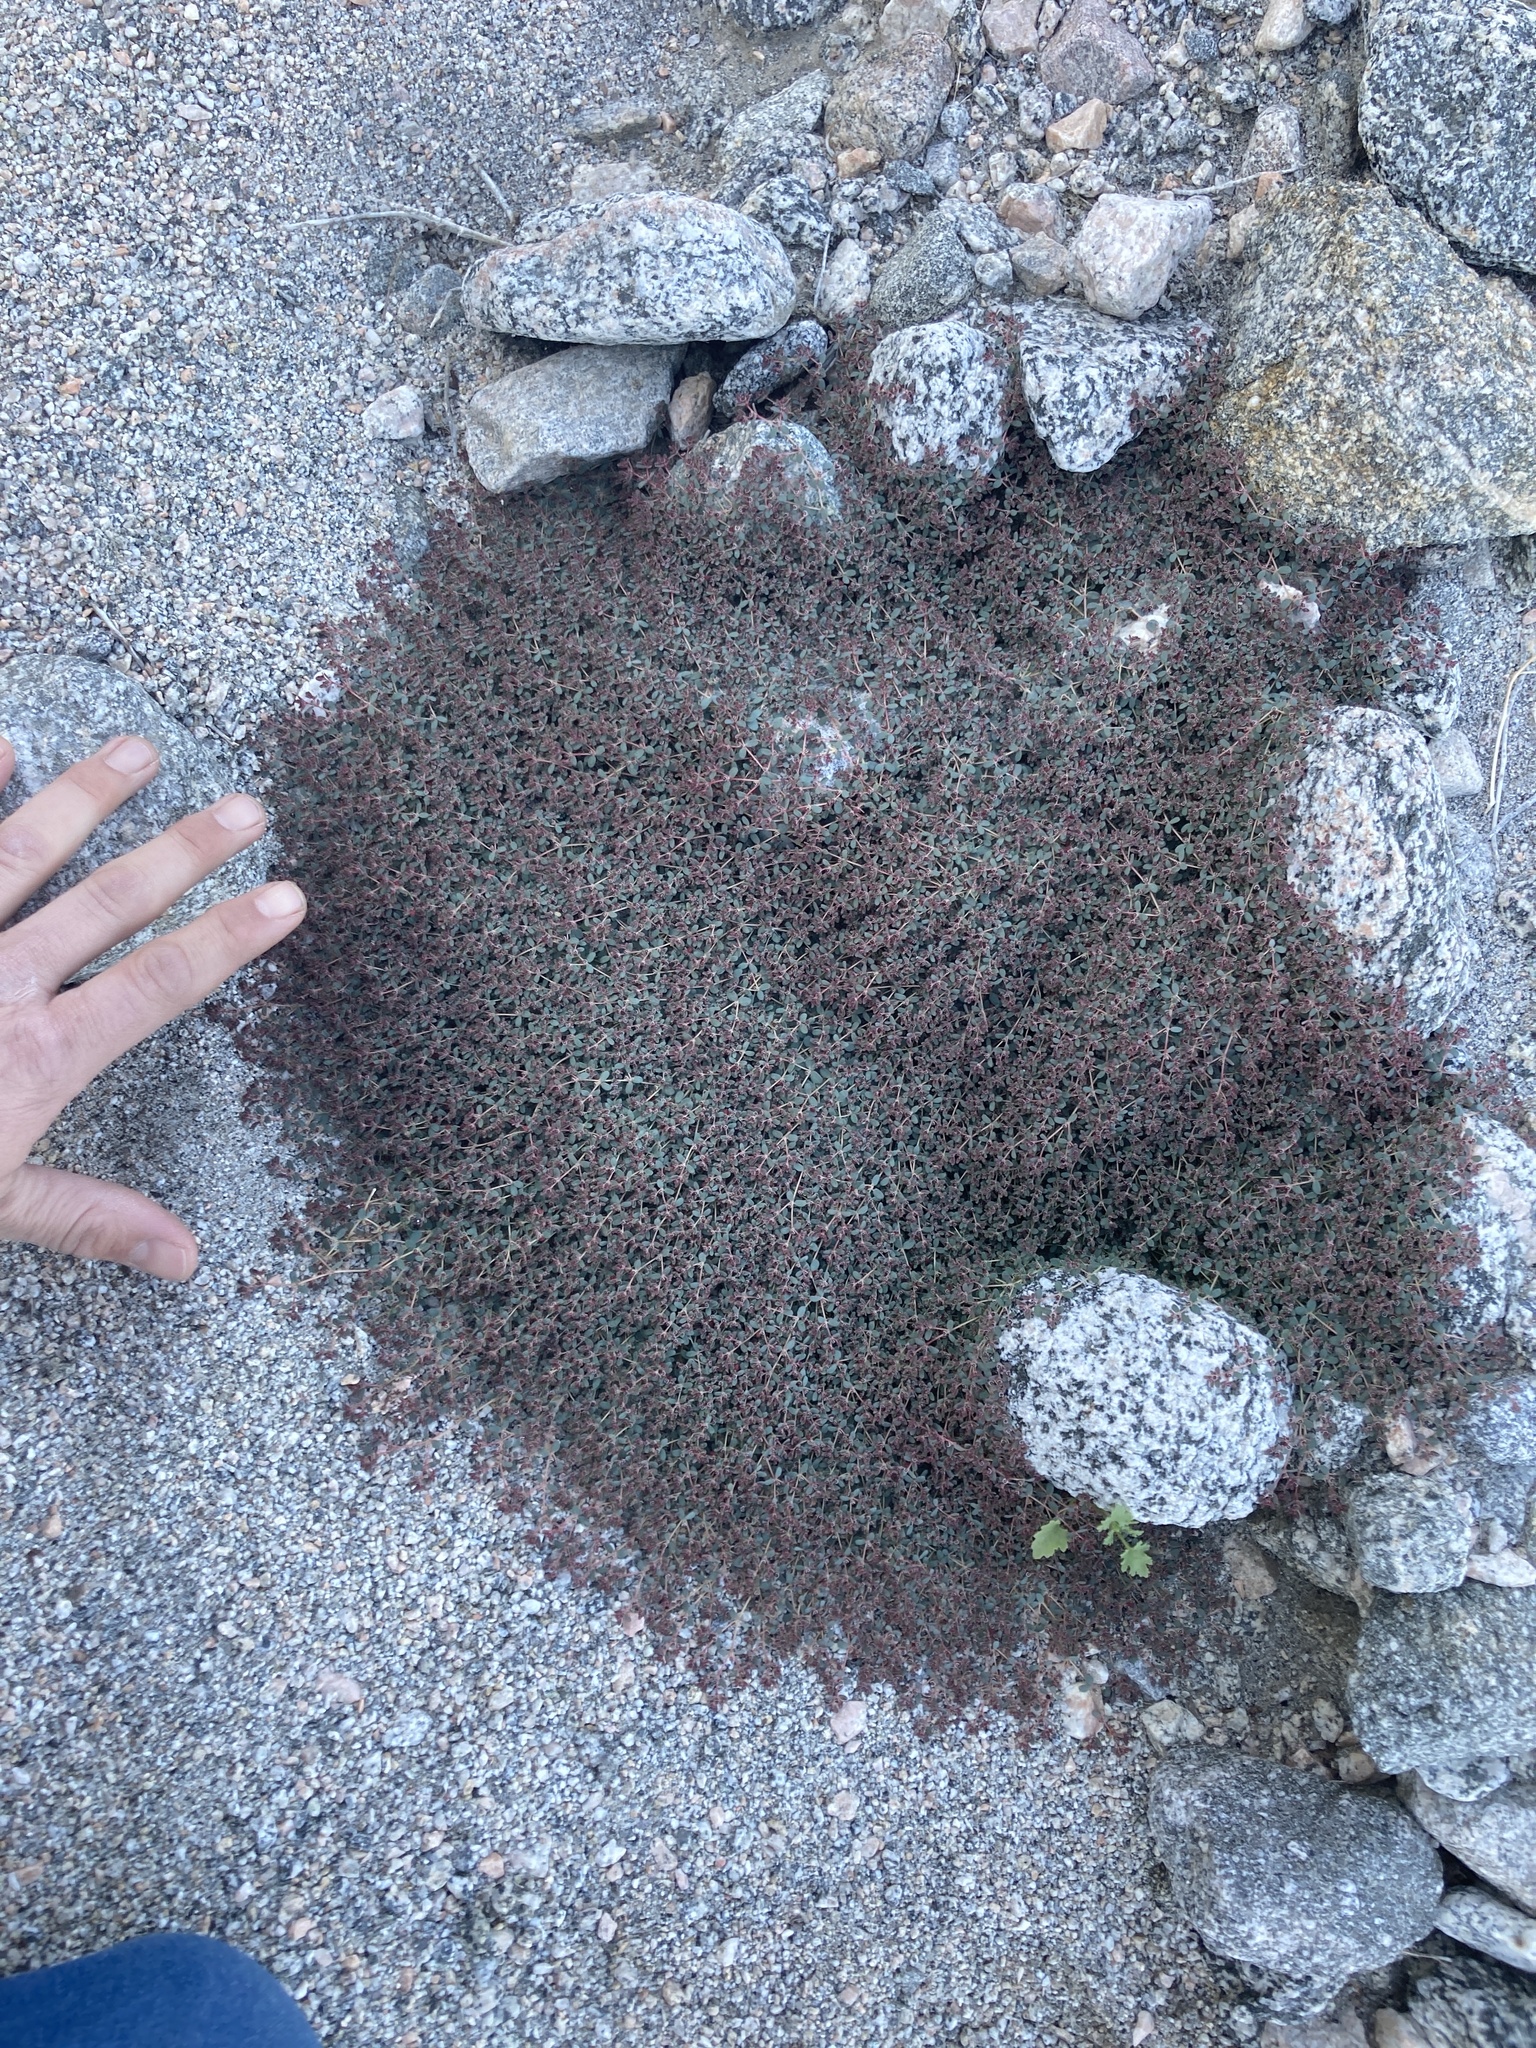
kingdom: Plantae
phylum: Tracheophyta
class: Magnoliopsida
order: Malpighiales
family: Euphorbiaceae
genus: Euphorbia
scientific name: Euphorbia polycarpa
